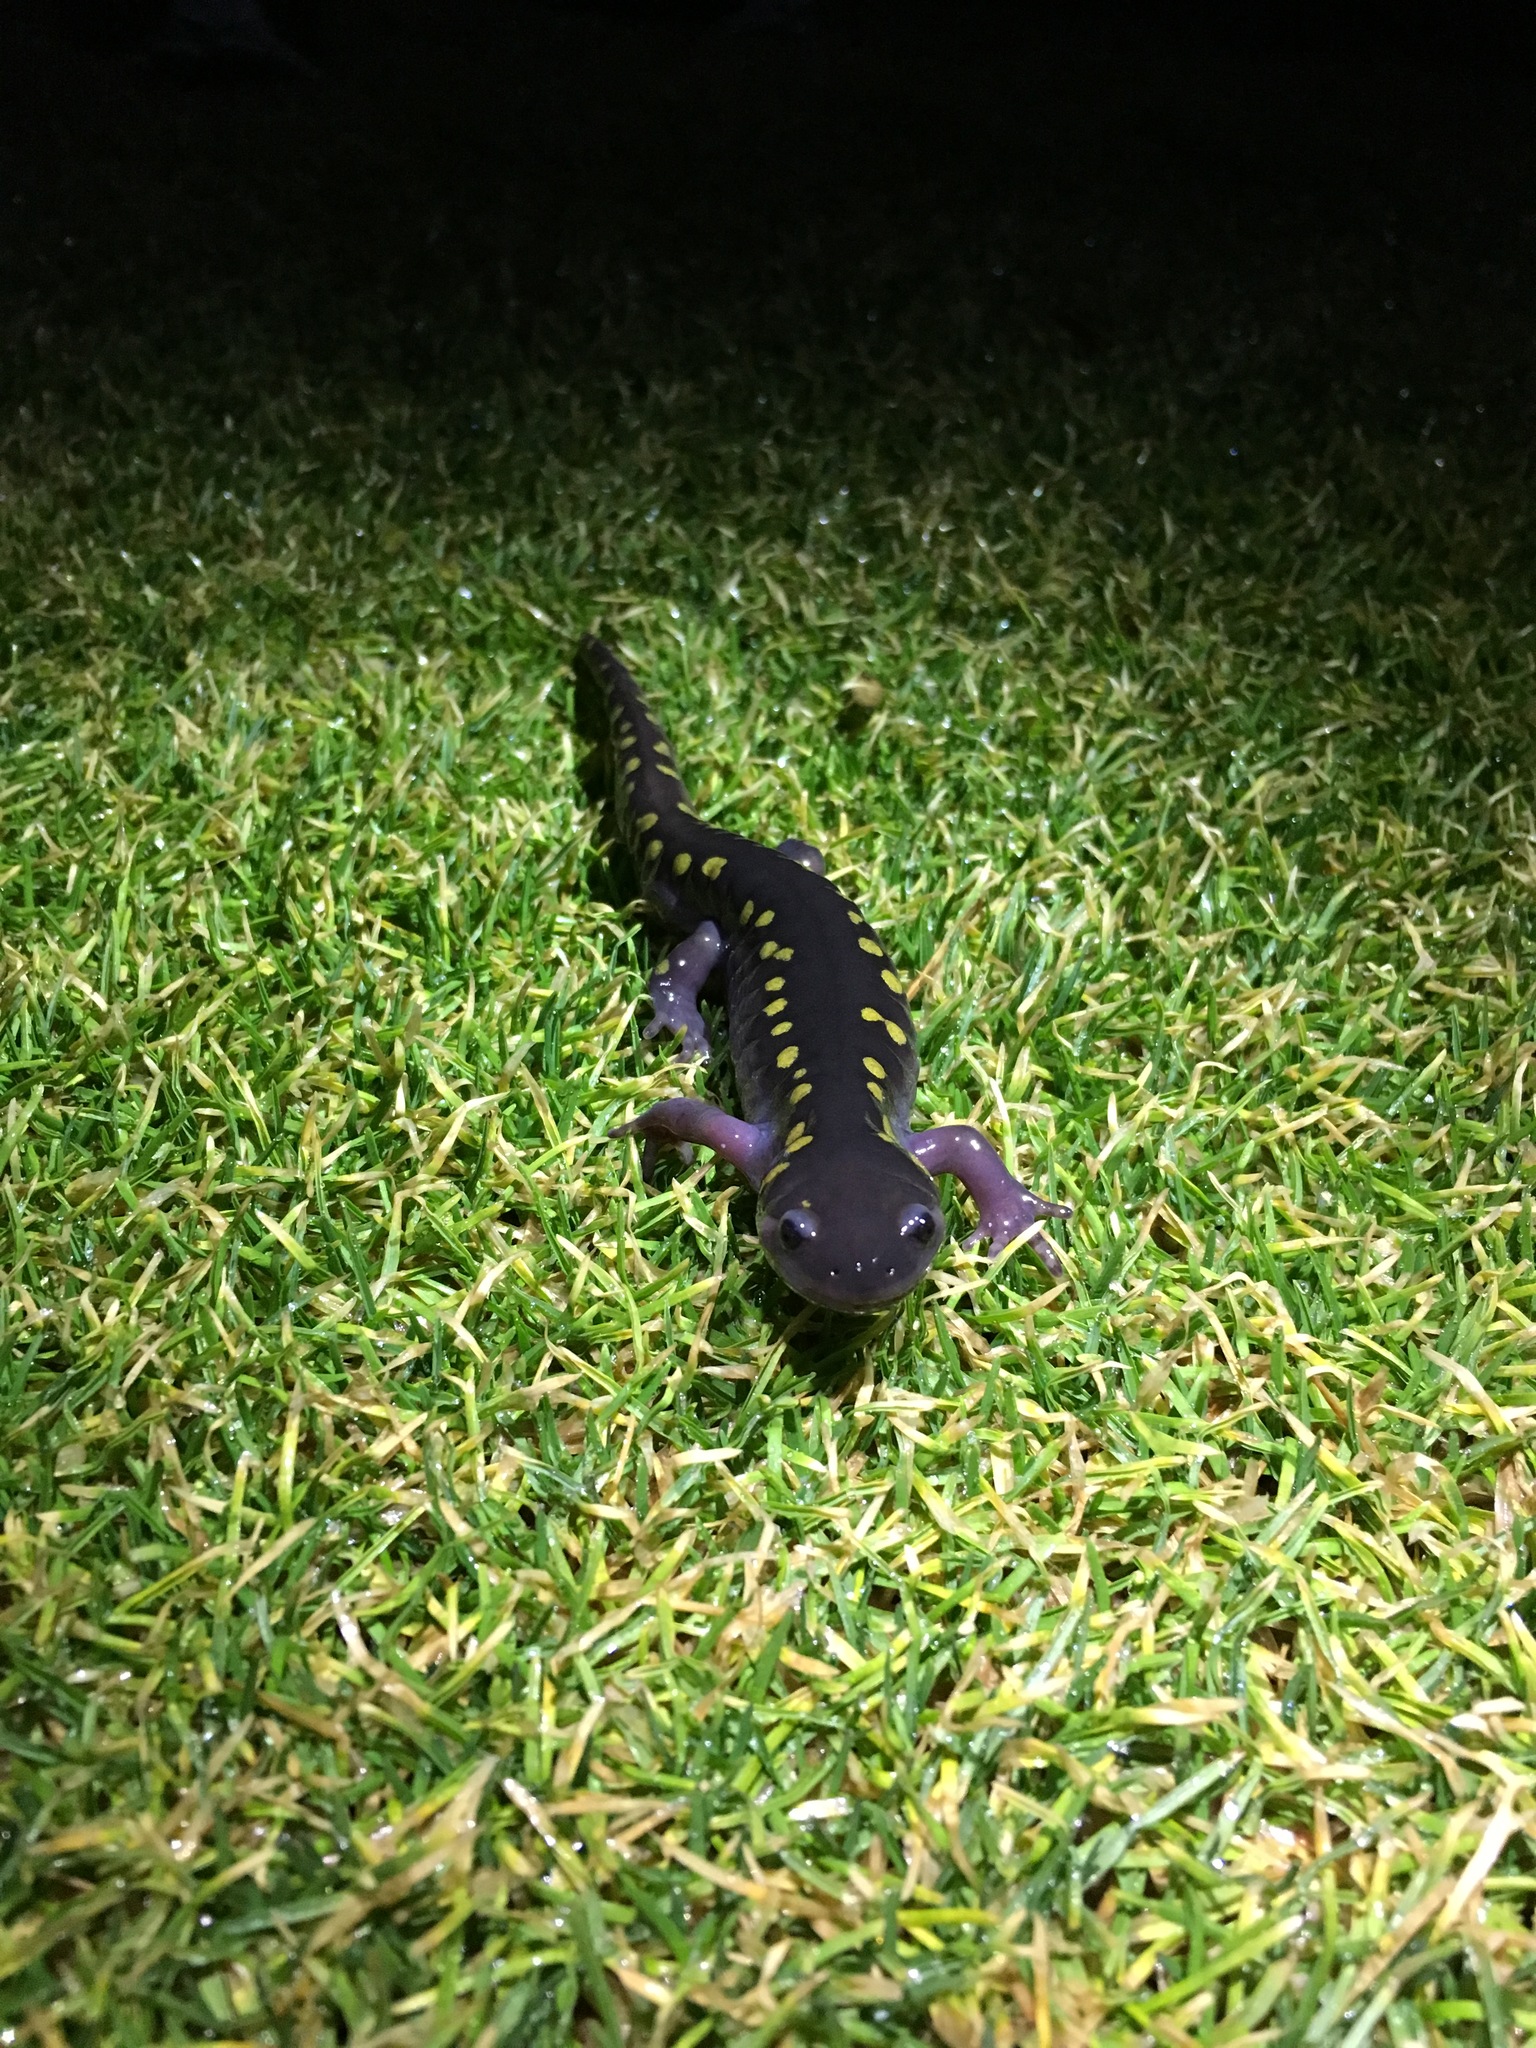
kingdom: Animalia
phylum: Chordata
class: Amphibia
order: Caudata
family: Ambystomatidae
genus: Ambystoma
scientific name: Ambystoma maculatum
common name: Spotted salamander
